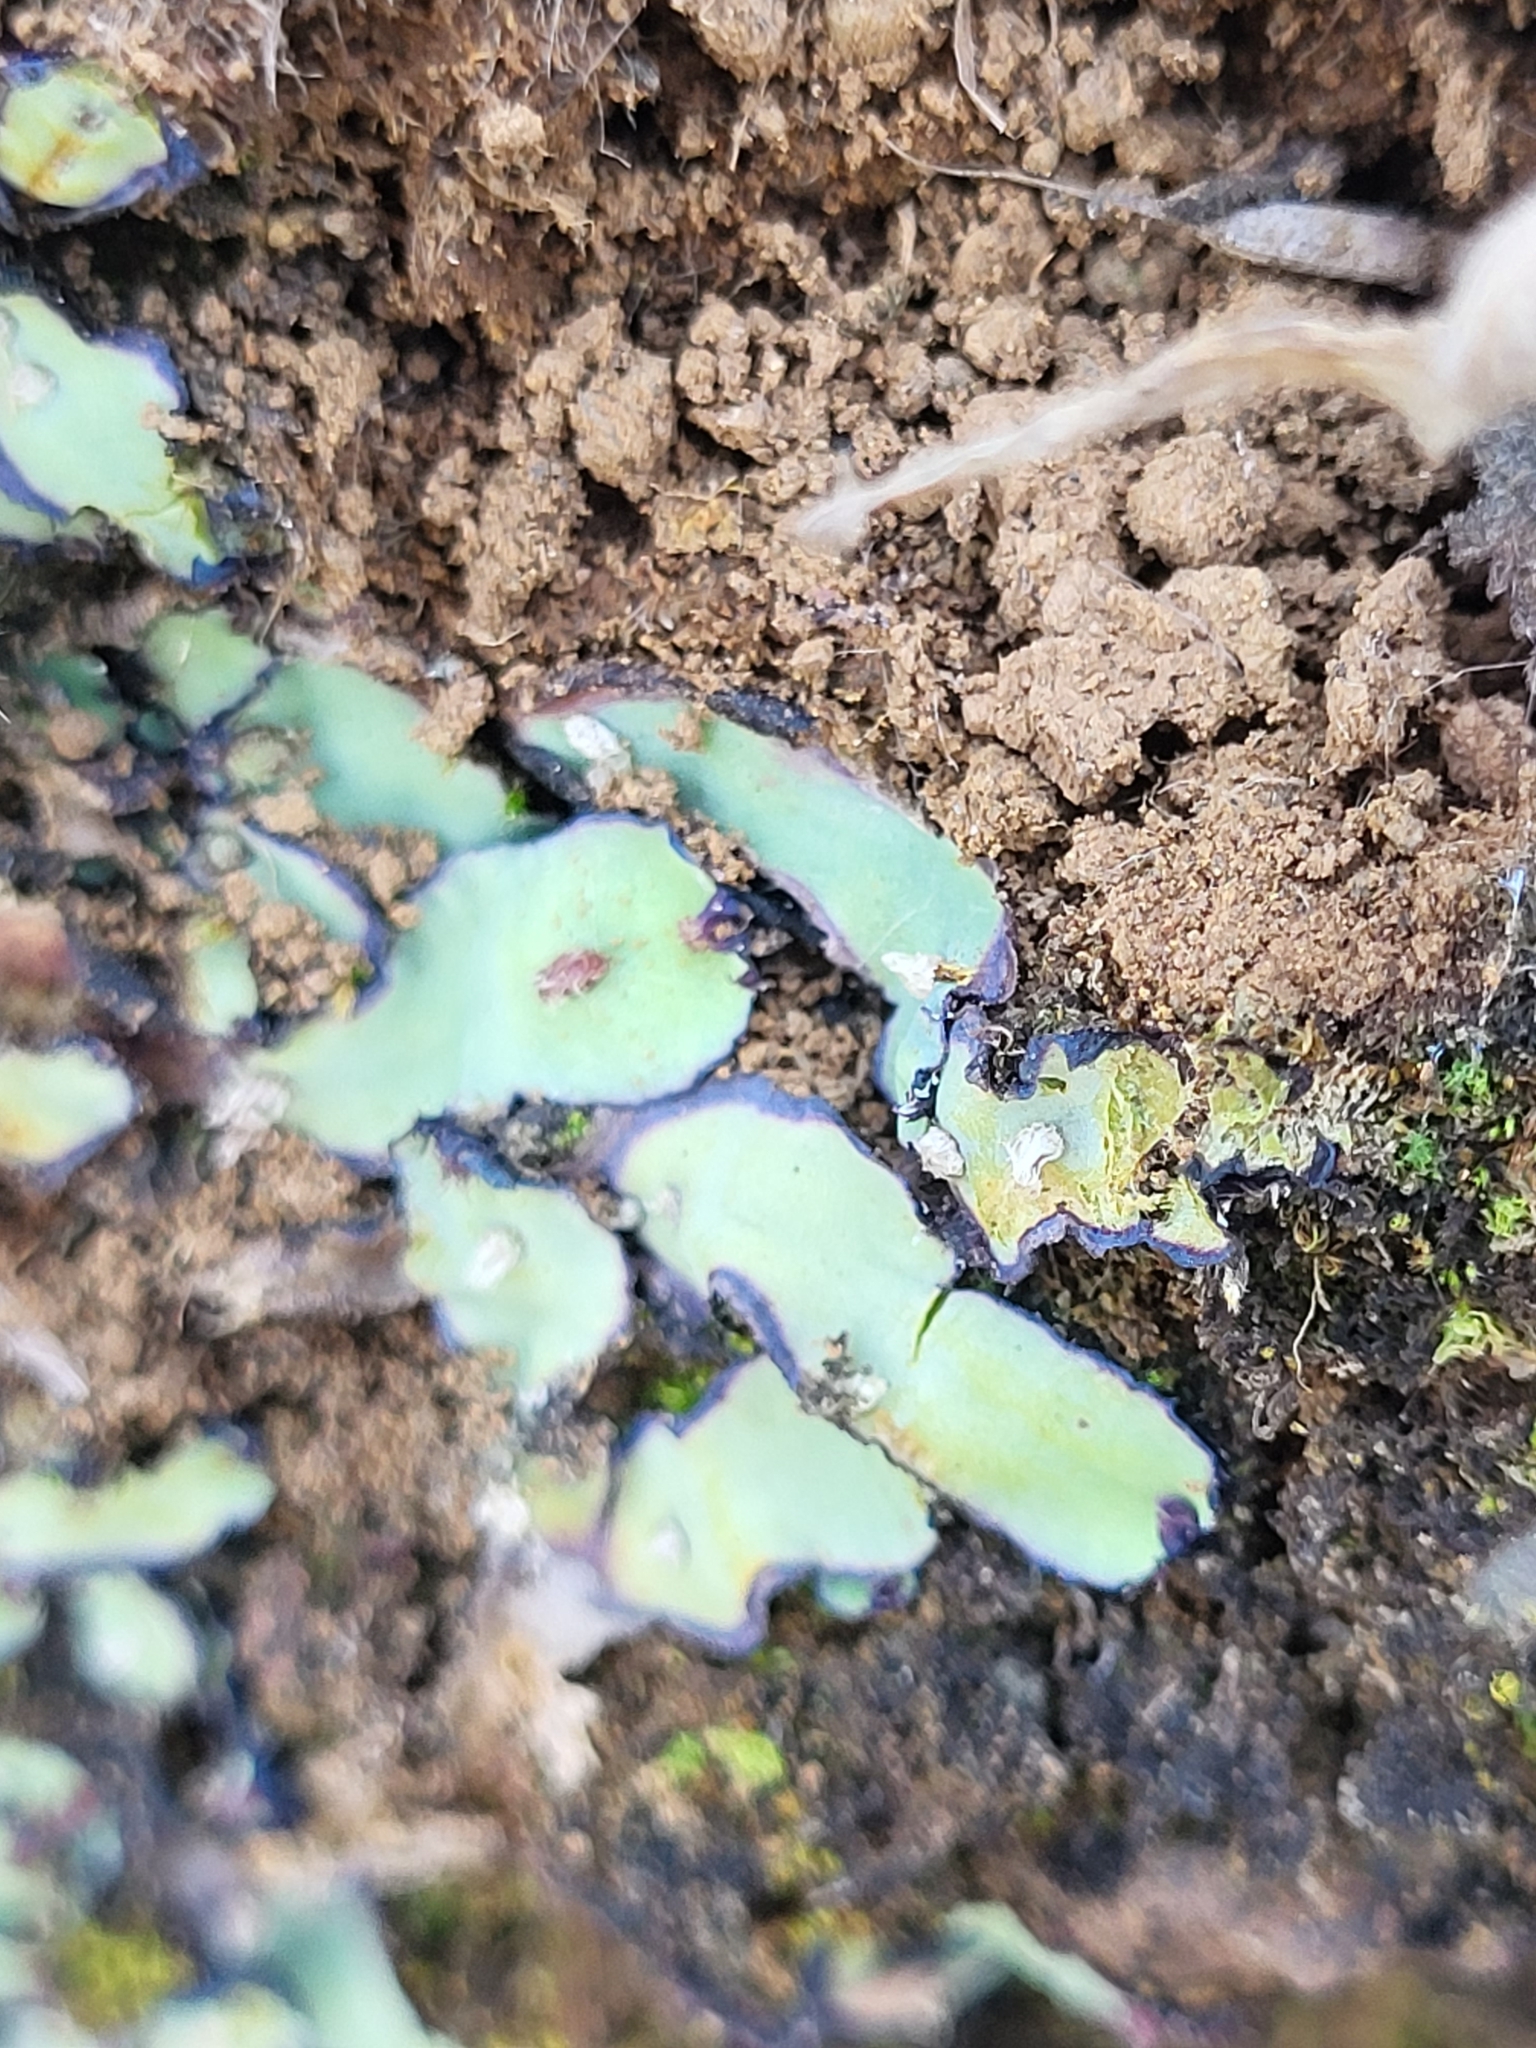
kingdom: Plantae
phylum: Marchantiophyta
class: Marchantiopsida
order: Marchantiales
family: Aytoniaceae
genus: Plagiochasma
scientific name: Plagiochasma rupestre
